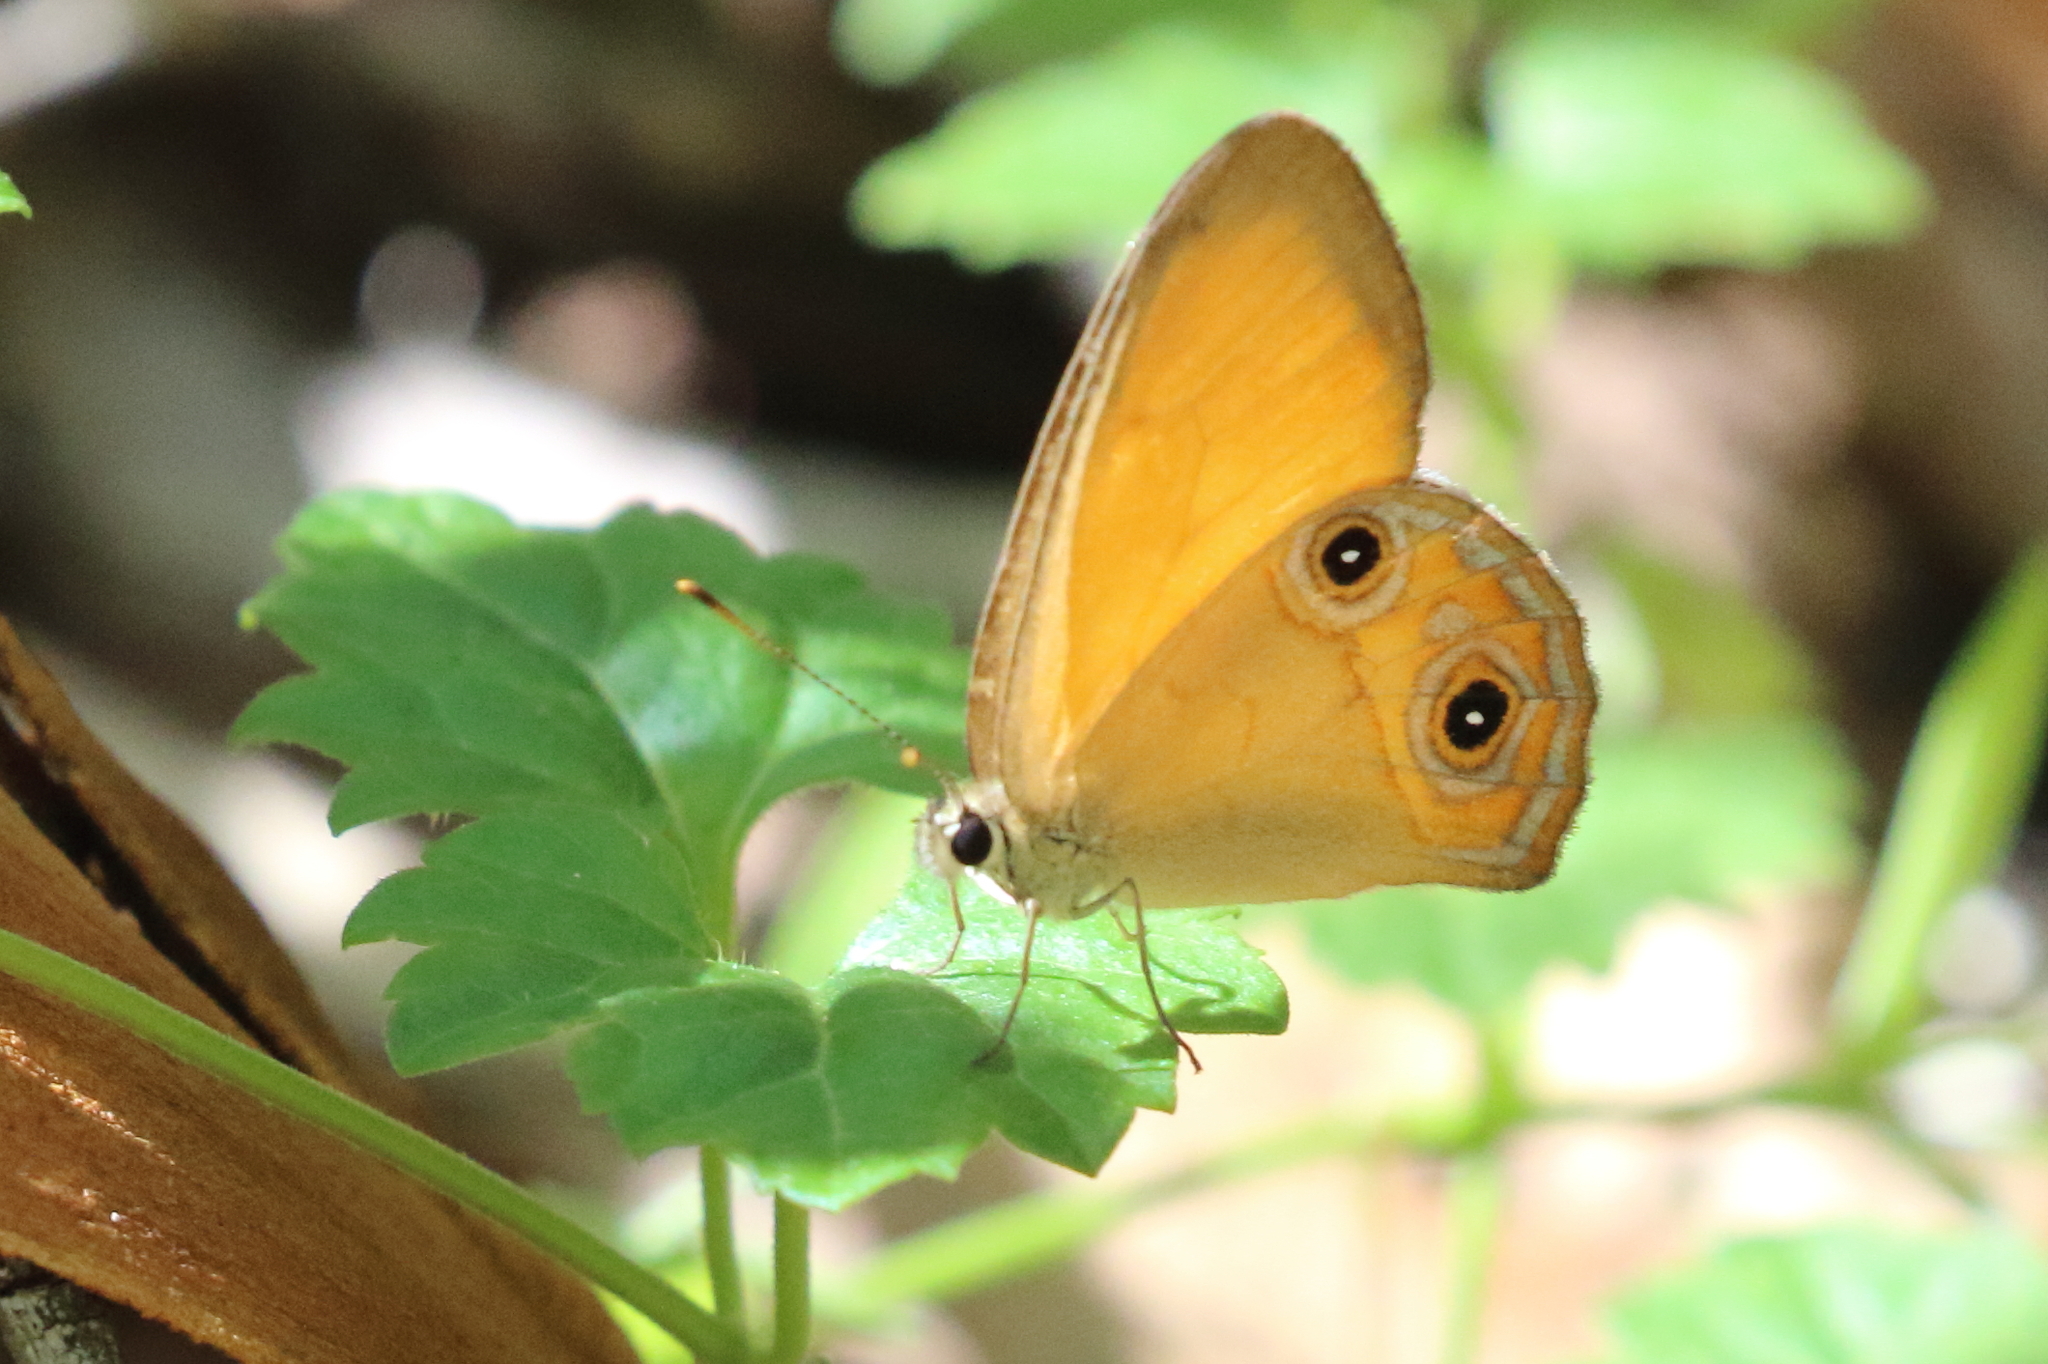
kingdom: Animalia
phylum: Arthropoda
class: Insecta
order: Lepidoptera
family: Nymphalidae
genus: Hypocysta
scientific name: Hypocysta adiante
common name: Orange ringlet
